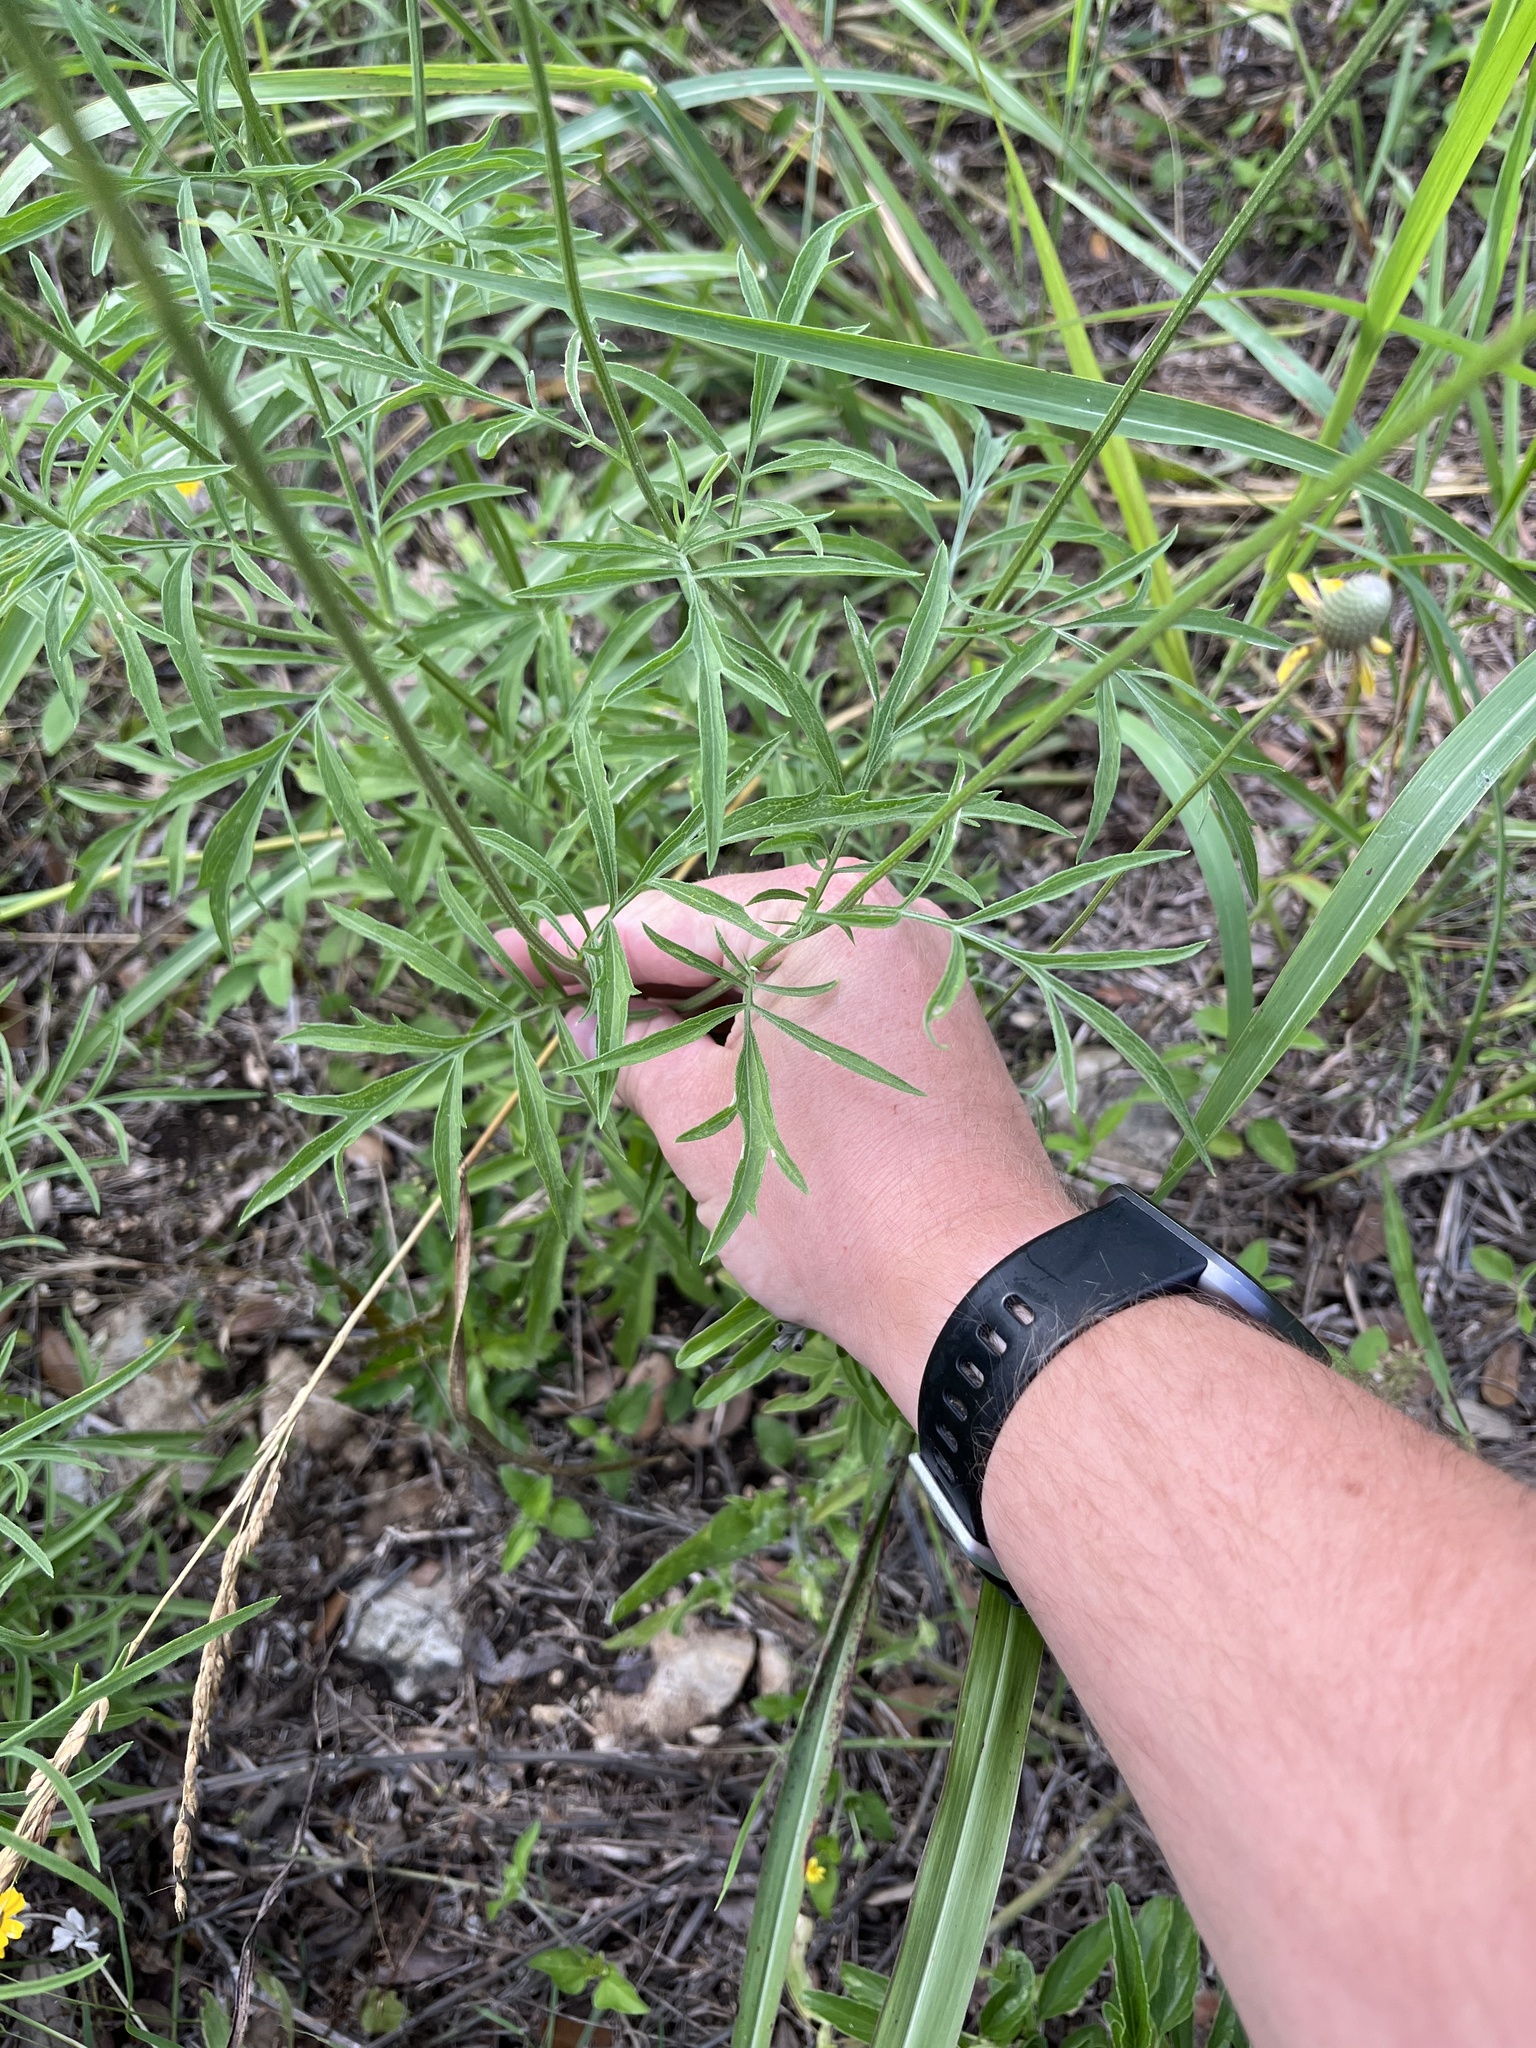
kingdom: Plantae
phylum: Tracheophyta
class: Magnoliopsida
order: Asterales
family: Asteraceae
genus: Ratibida
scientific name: Ratibida columnifera
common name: Prairie coneflower
